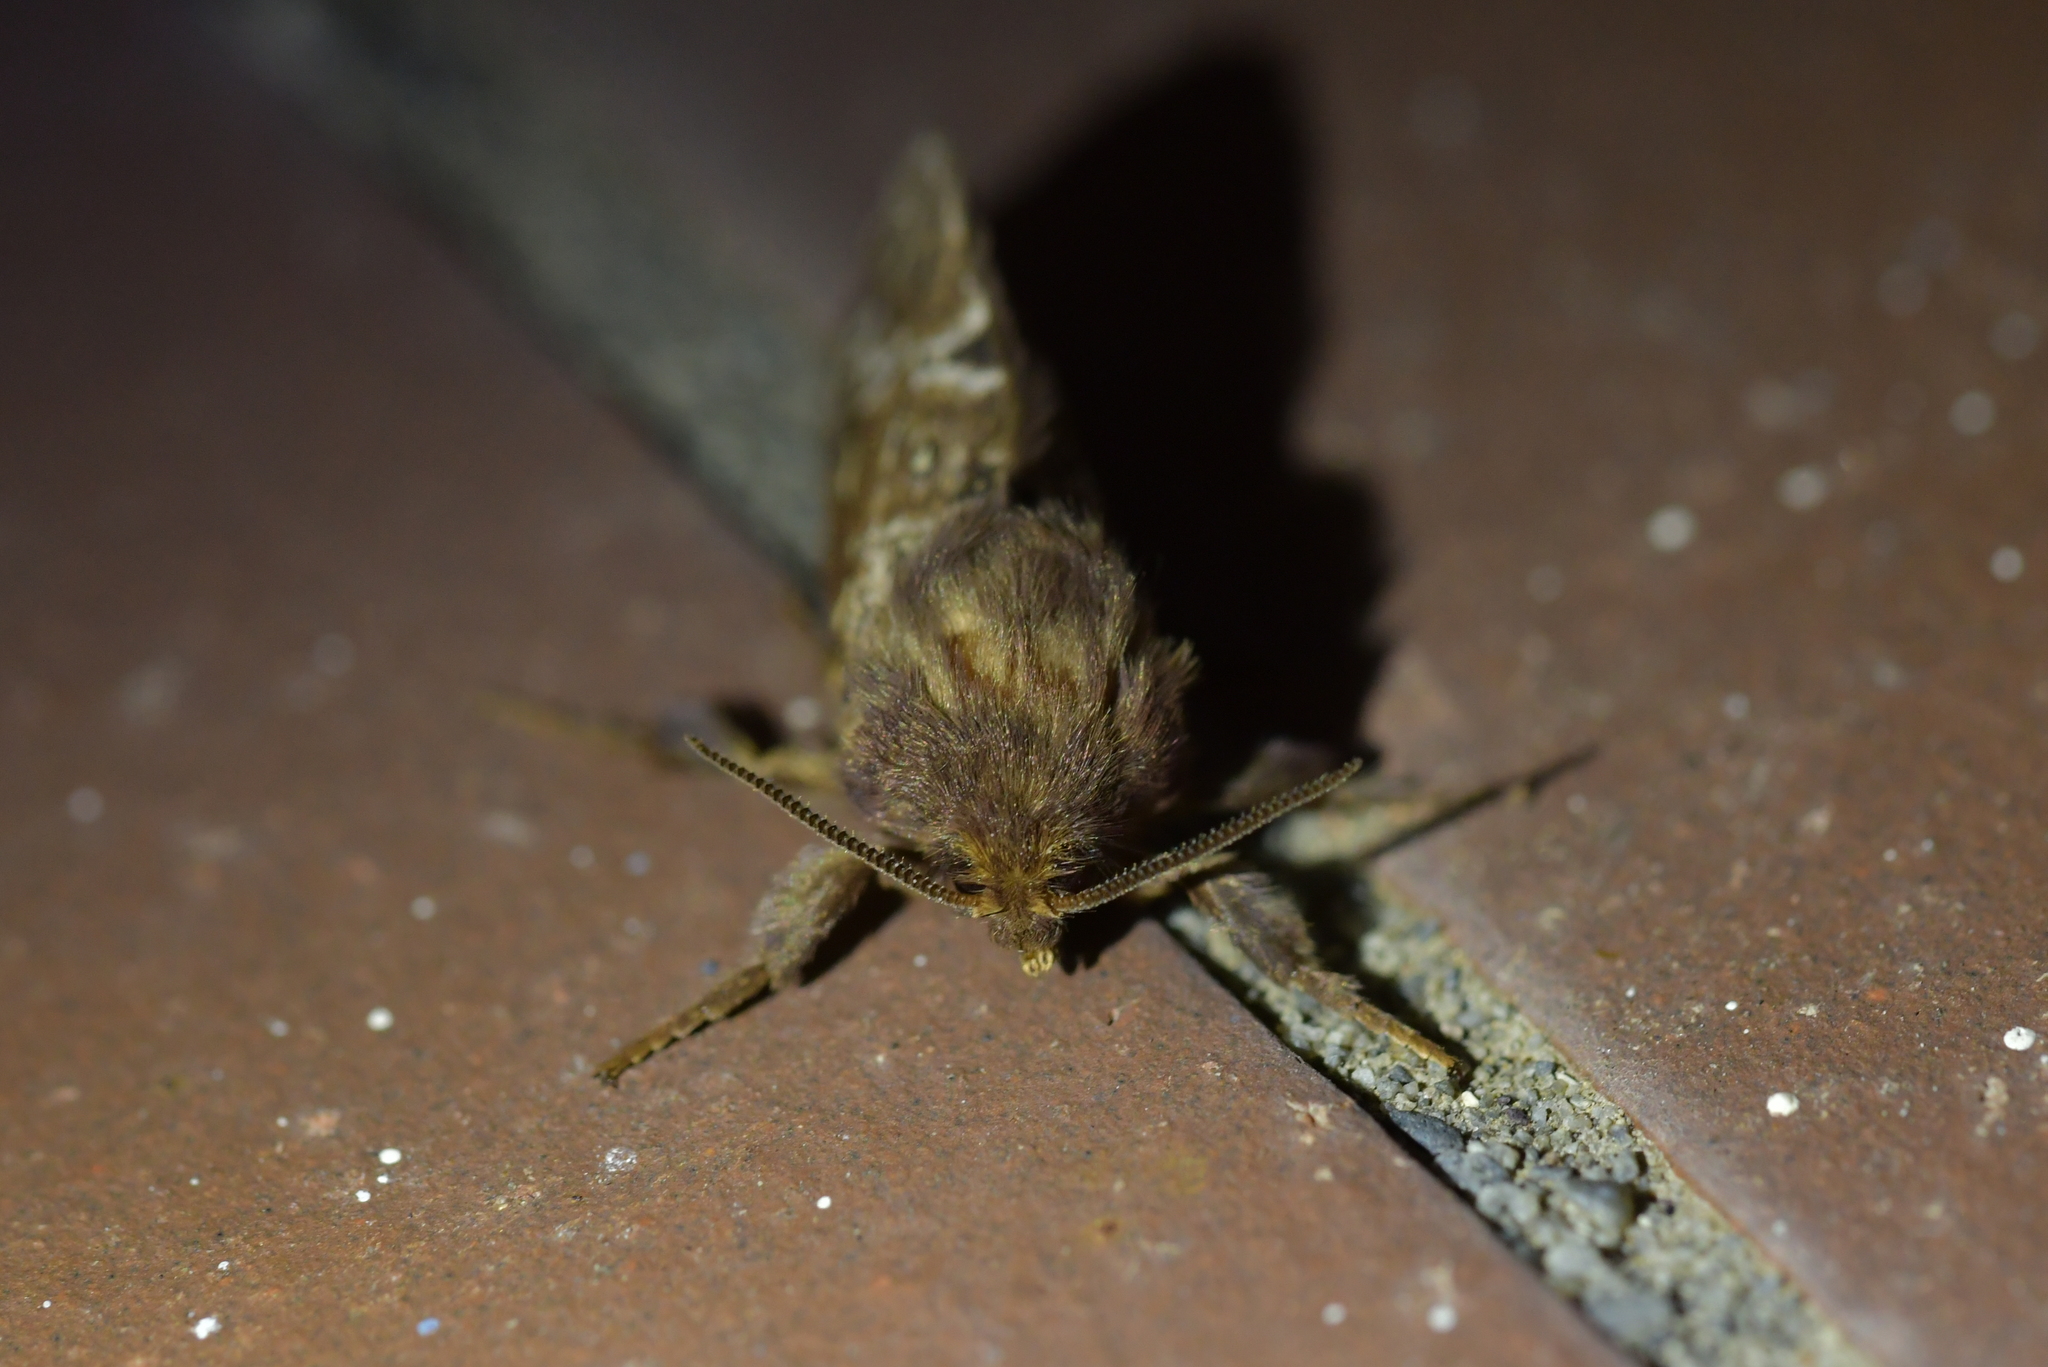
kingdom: Animalia
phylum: Arthropoda
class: Insecta
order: Lepidoptera
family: Hepialidae
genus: Wiseana
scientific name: Wiseana cervinata
